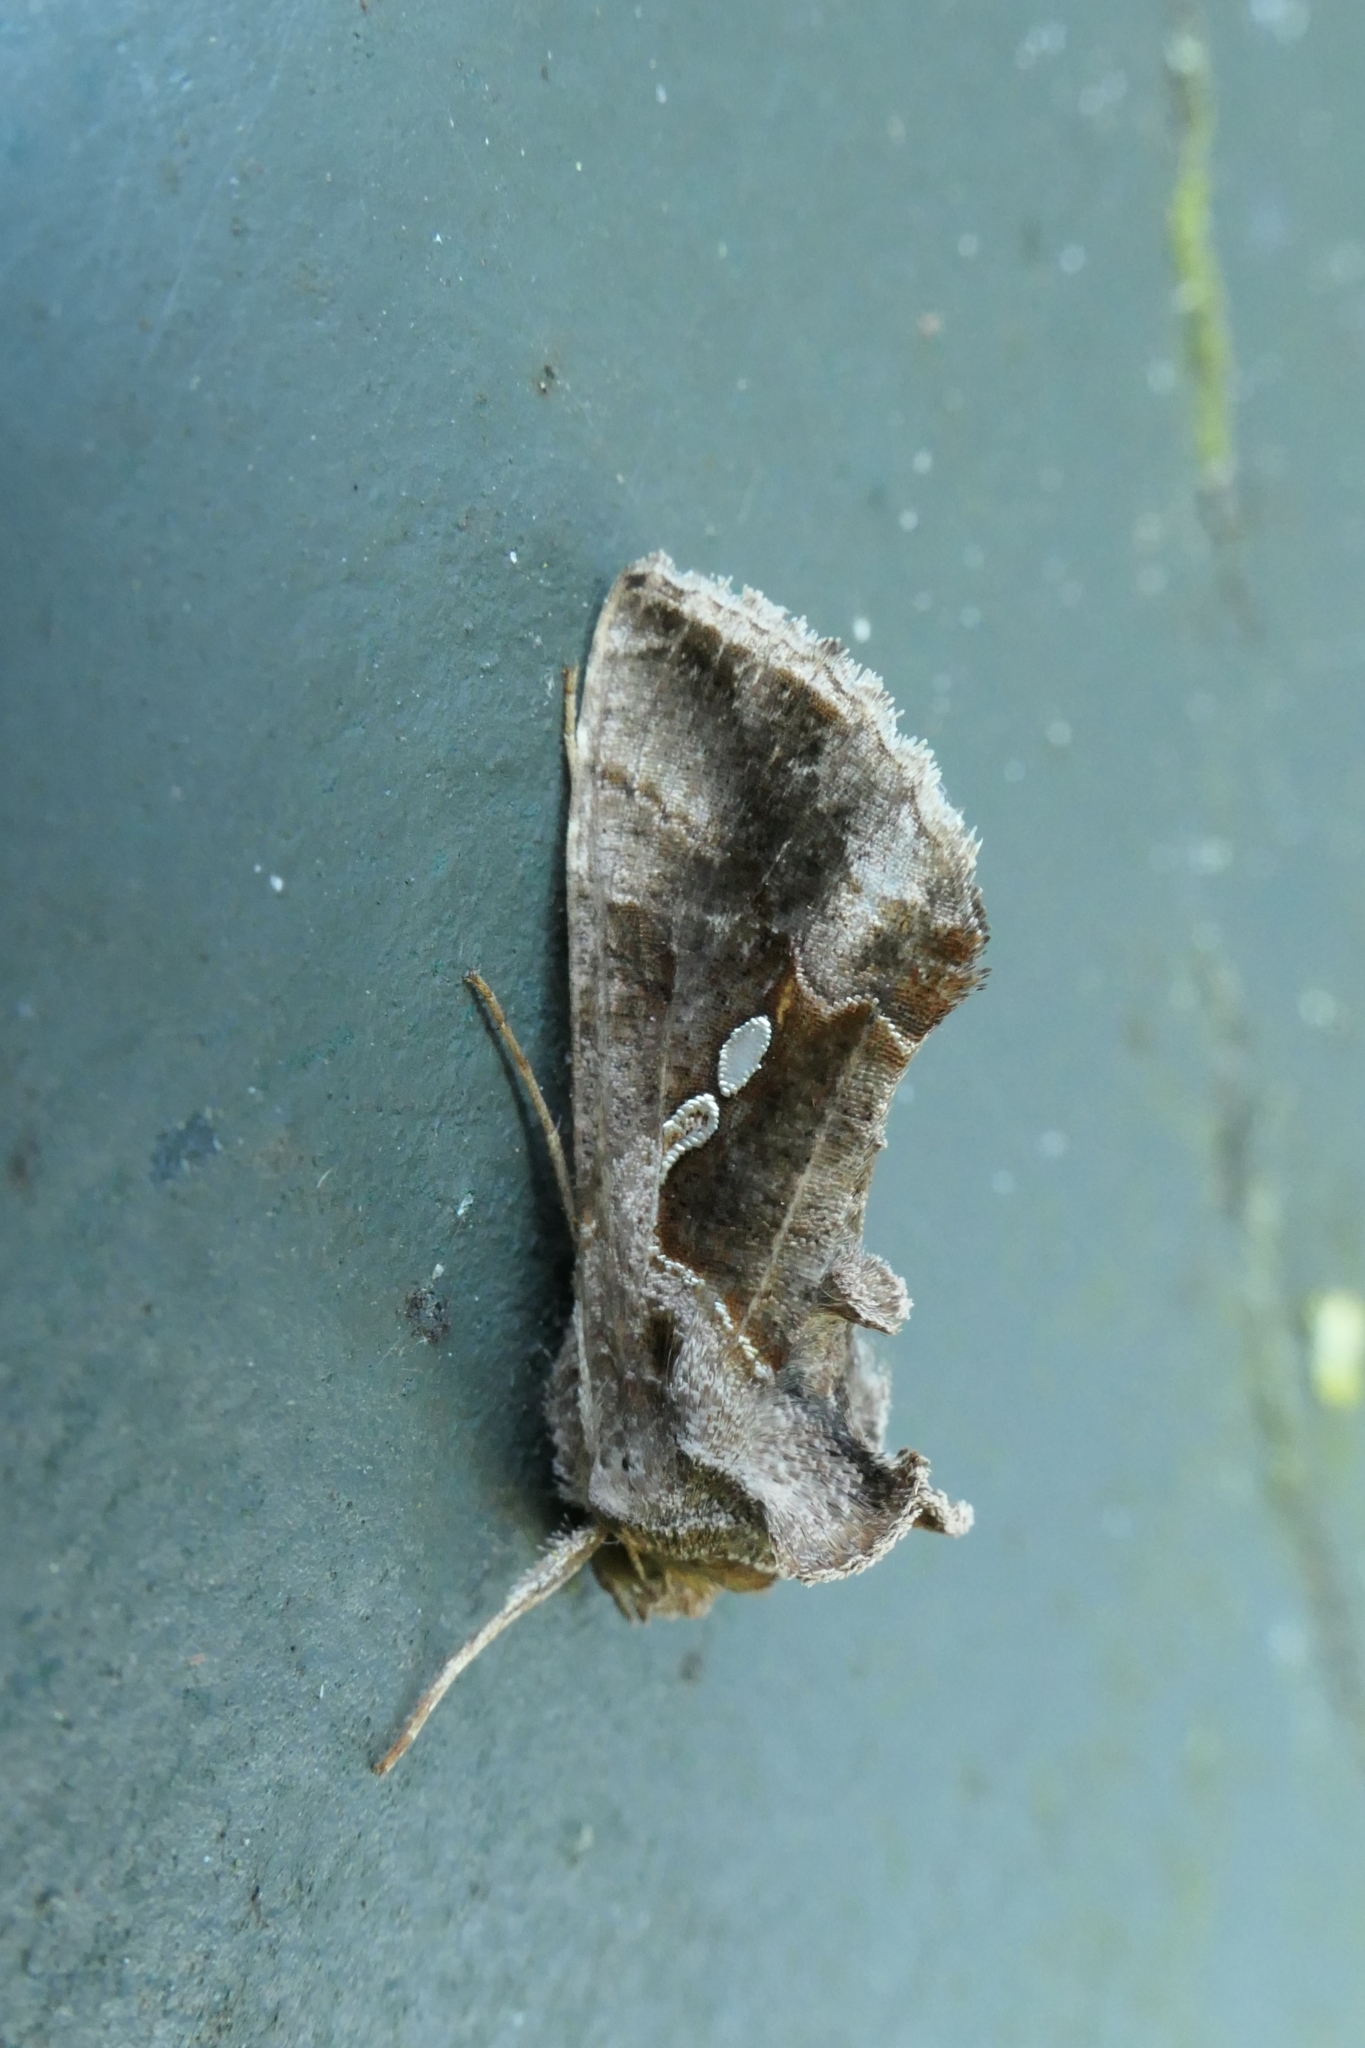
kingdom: Animalia
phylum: Arthropoda
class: Insecta
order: Lepidoptera
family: Noctuidae
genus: Chrysodeixis
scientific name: Chrysodeixis eriosoma
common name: Green garden looper
